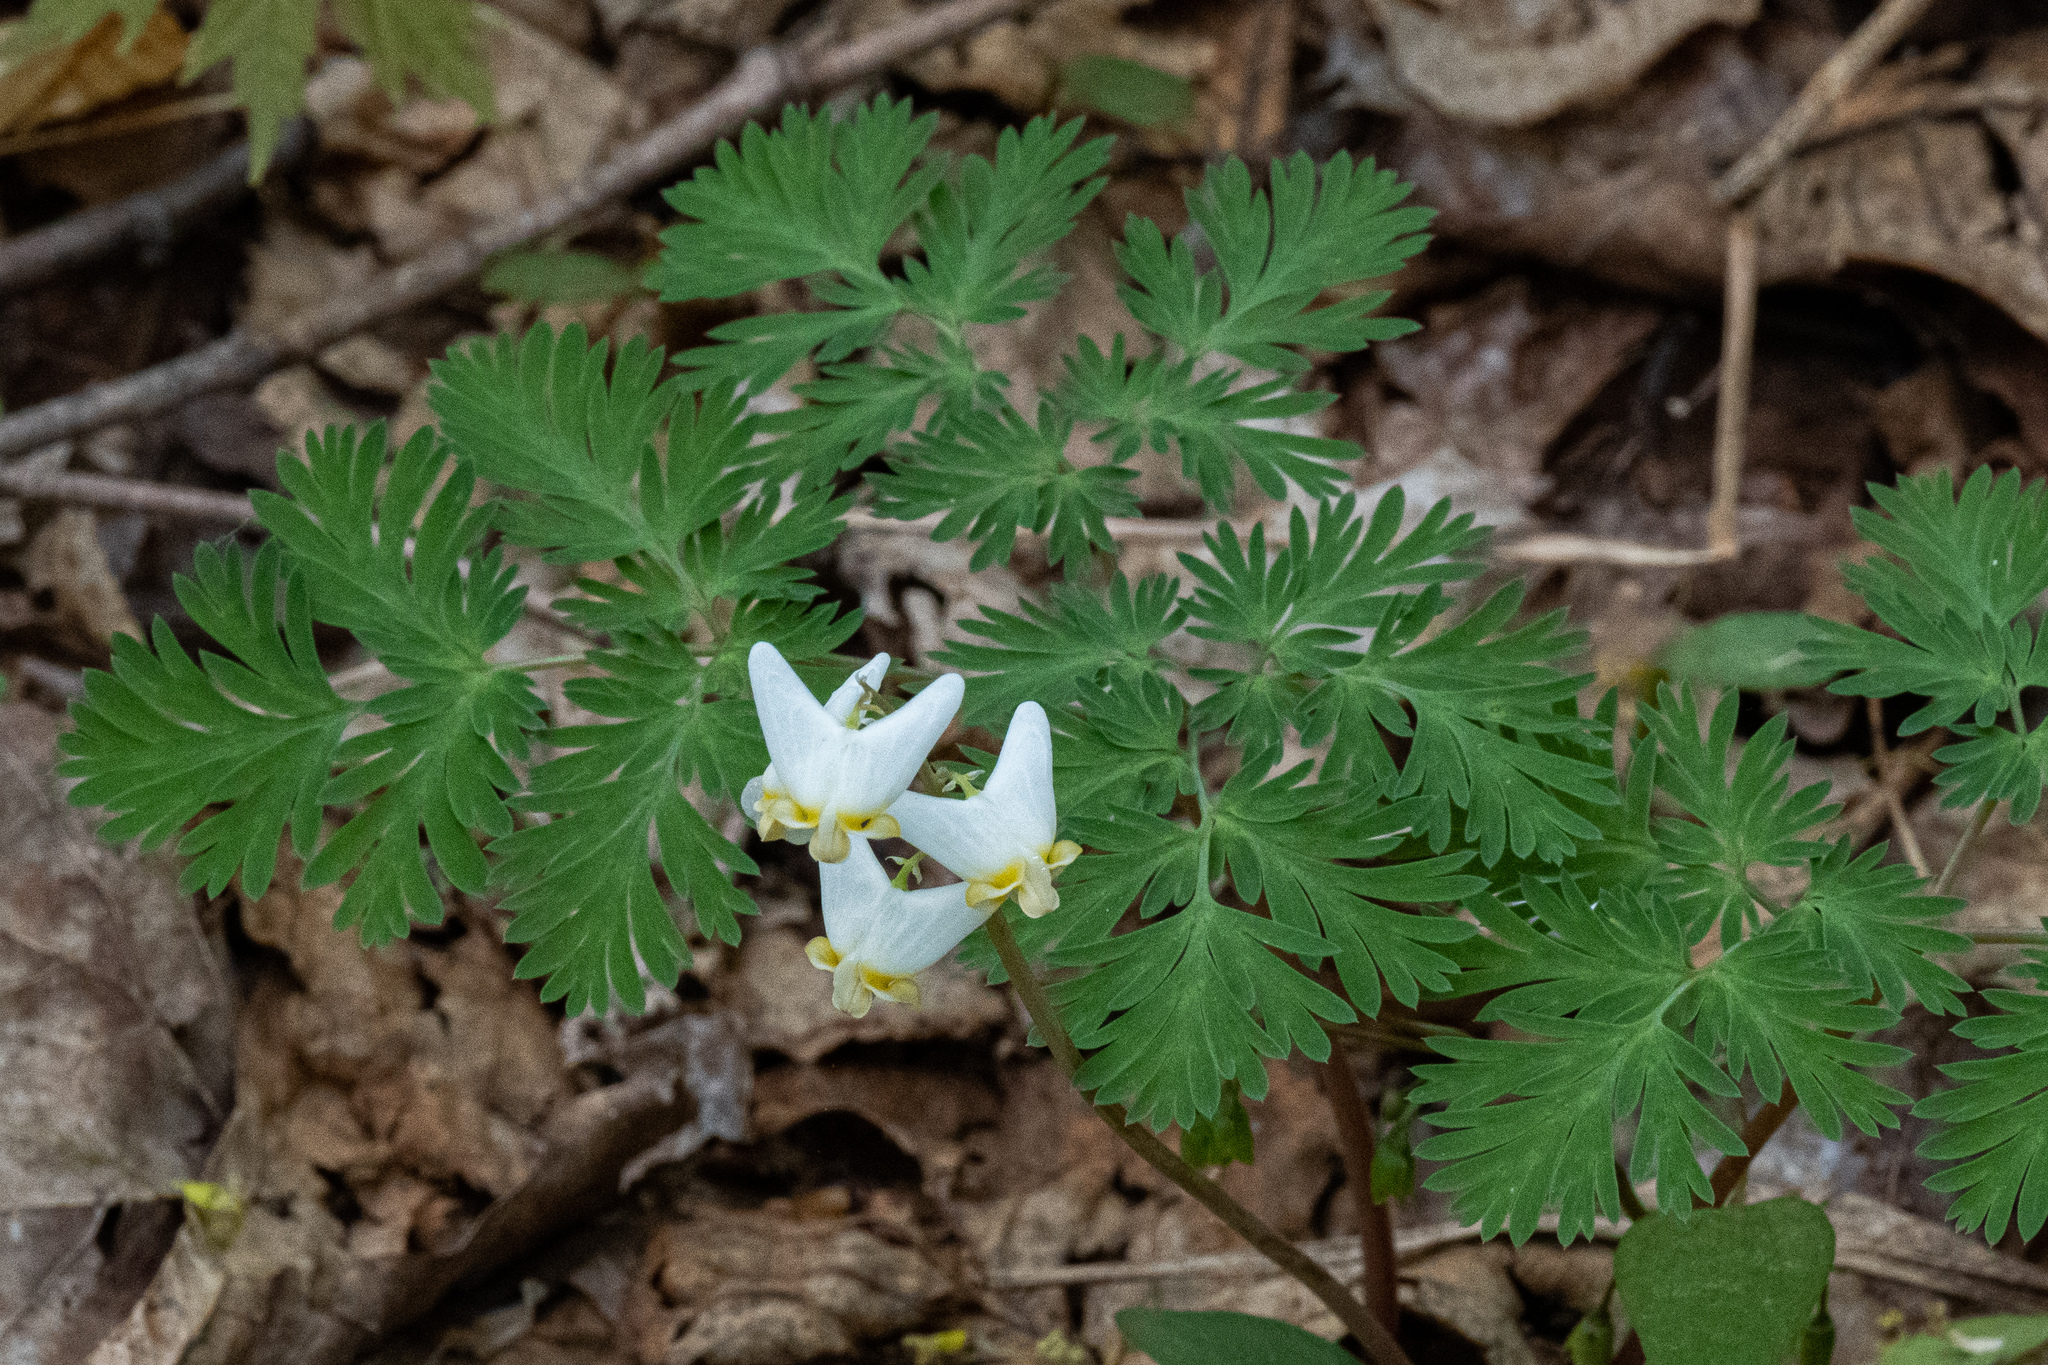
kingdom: Plantae
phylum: Tracheophyta
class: Magnoliopsida
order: Ranunculales
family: Papaveraceae
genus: Dicentra
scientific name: Dicentra cucullaria
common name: Dutchman's breeches
